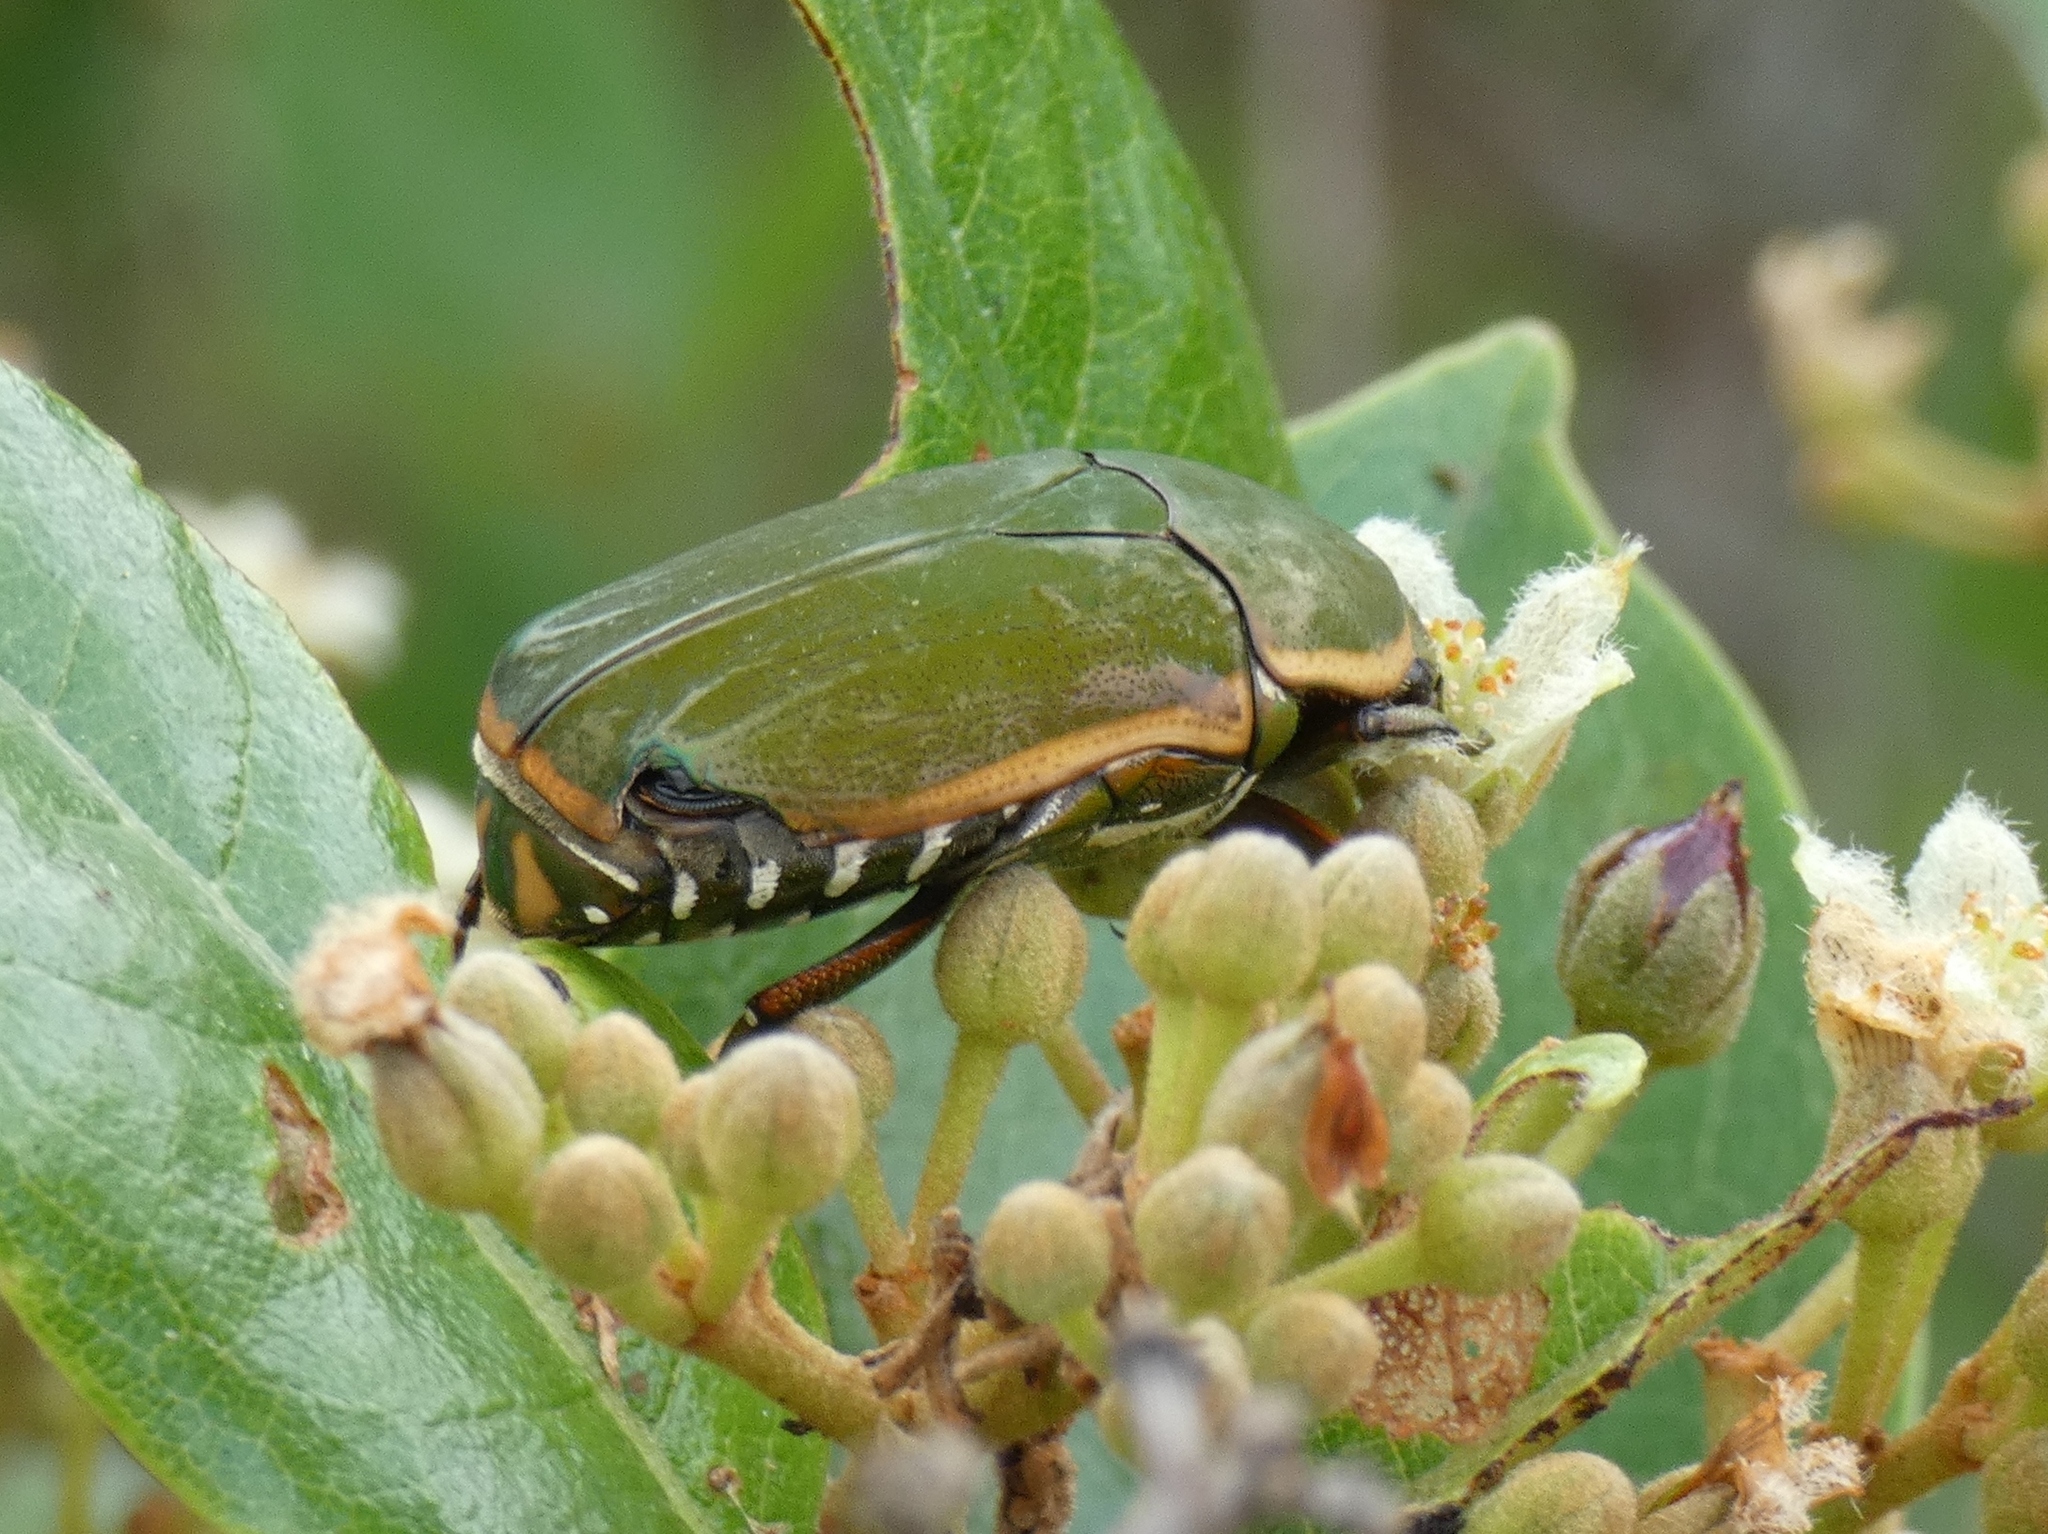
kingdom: Animalia
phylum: Arthropoda
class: Insecta
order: Coleoptera
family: Scarabaeidae
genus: Marmylida
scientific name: Marmylida Pachnodella marginella
